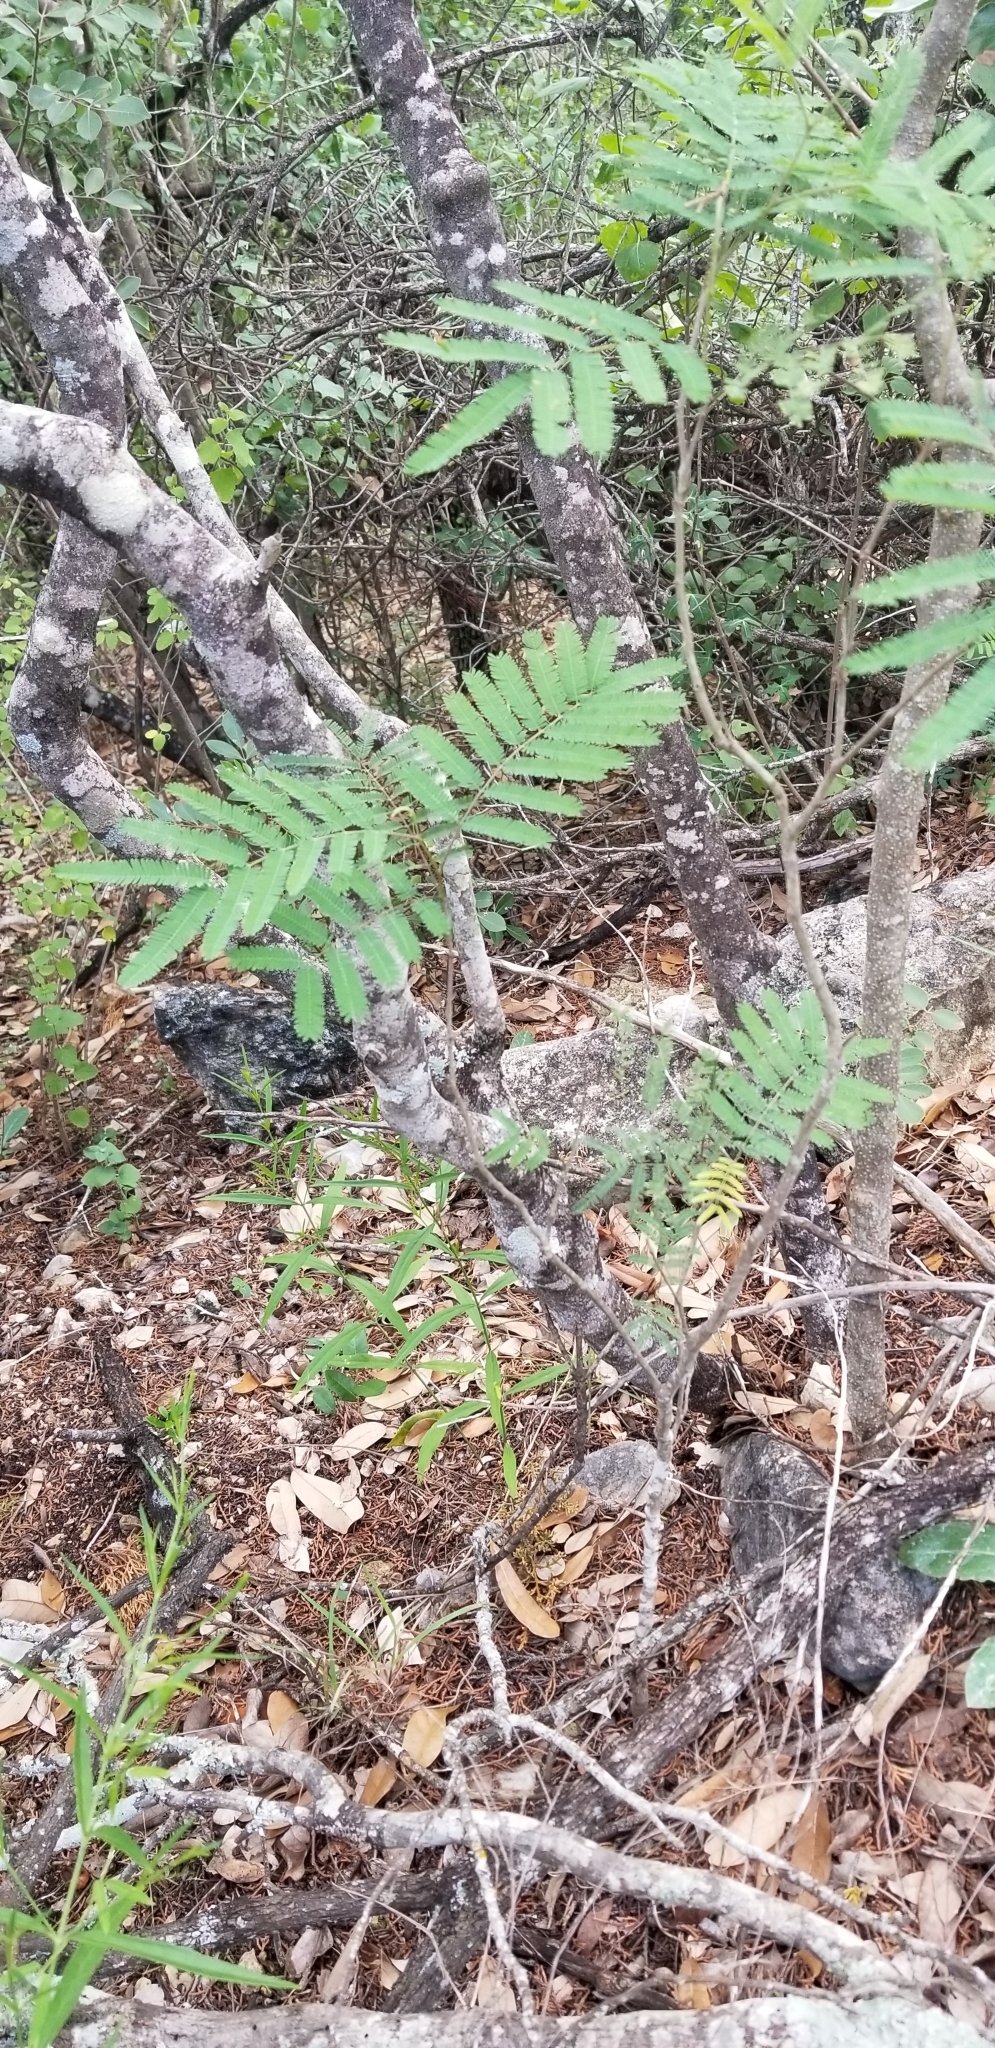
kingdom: Plantae
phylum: Tracheophyta
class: Magnoliopsida
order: Fabales
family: Fabaceae
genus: Senegalia
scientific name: Senegalia berlandieri
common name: Berlandier acacia
